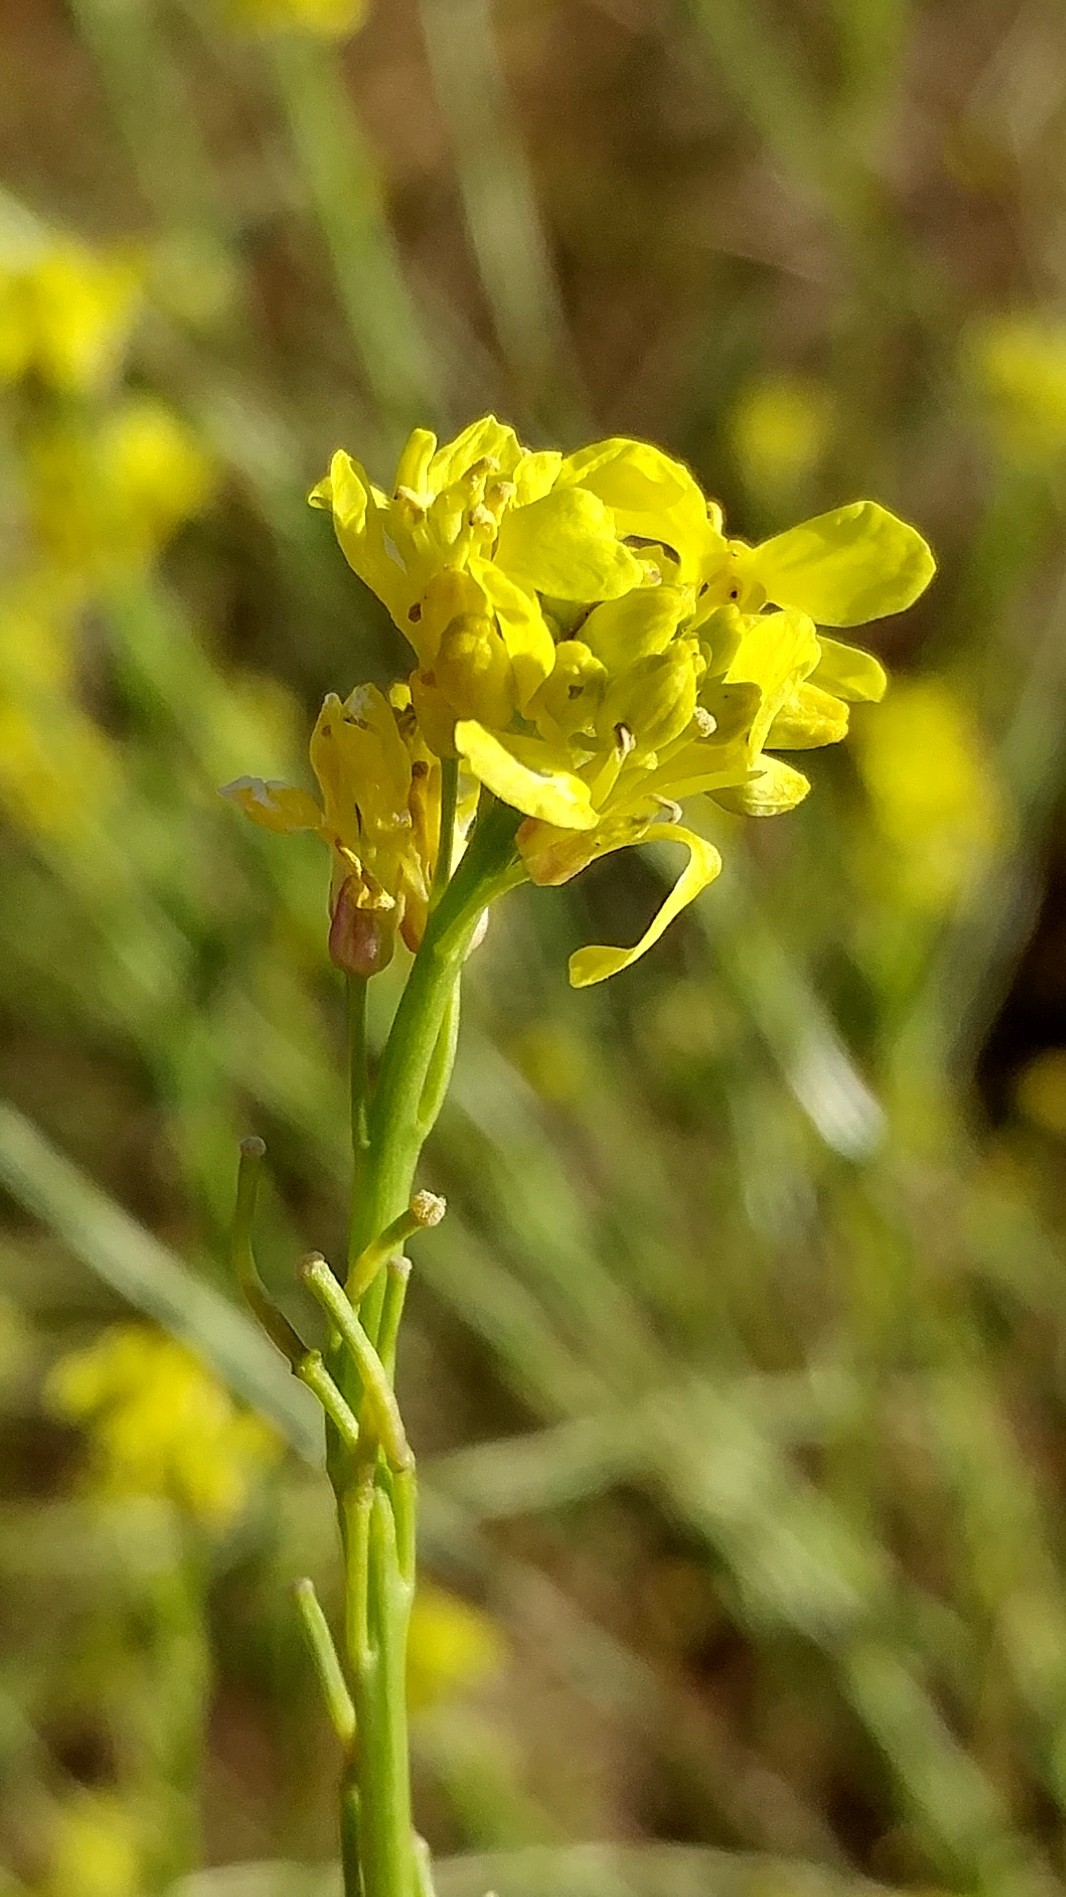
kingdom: Plantae
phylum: Tracheophyta
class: Magnoliopsida
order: Brassicales
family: Brassicaceae
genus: Hirschfeldia
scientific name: Hirschfeldia incana
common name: Hoary mustard
